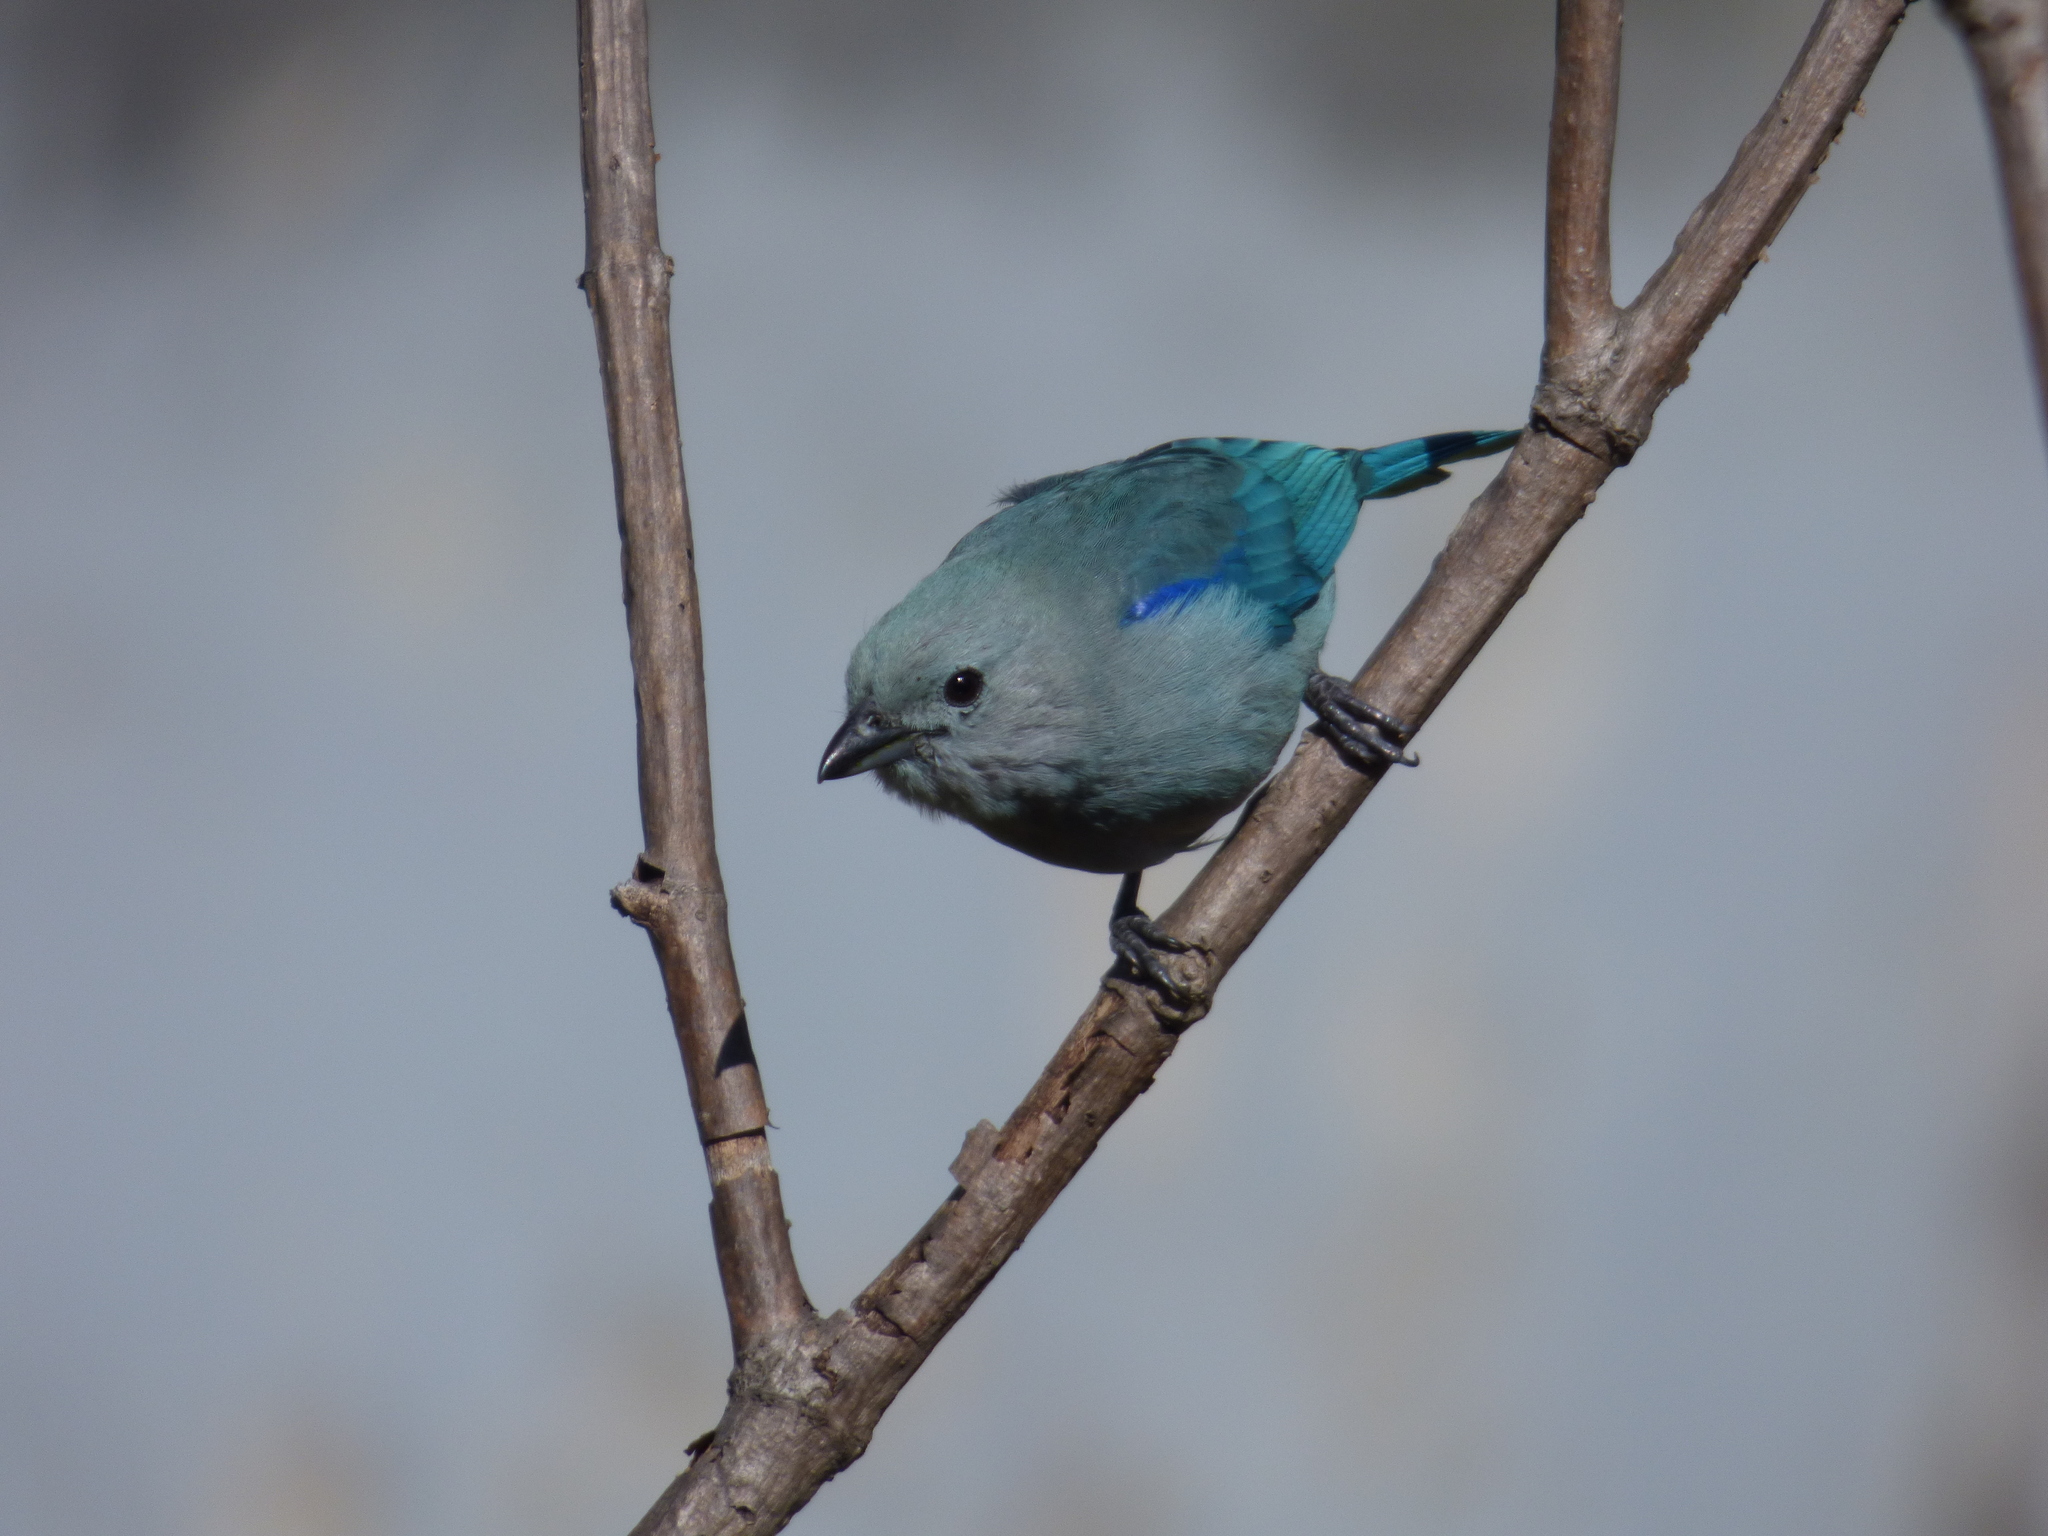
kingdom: Animalia
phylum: Chordata
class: Aves
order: Passeriformes
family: Thraupidae
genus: Thraupis
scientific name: Thraupis episcopus
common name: Blue-grey tanager
